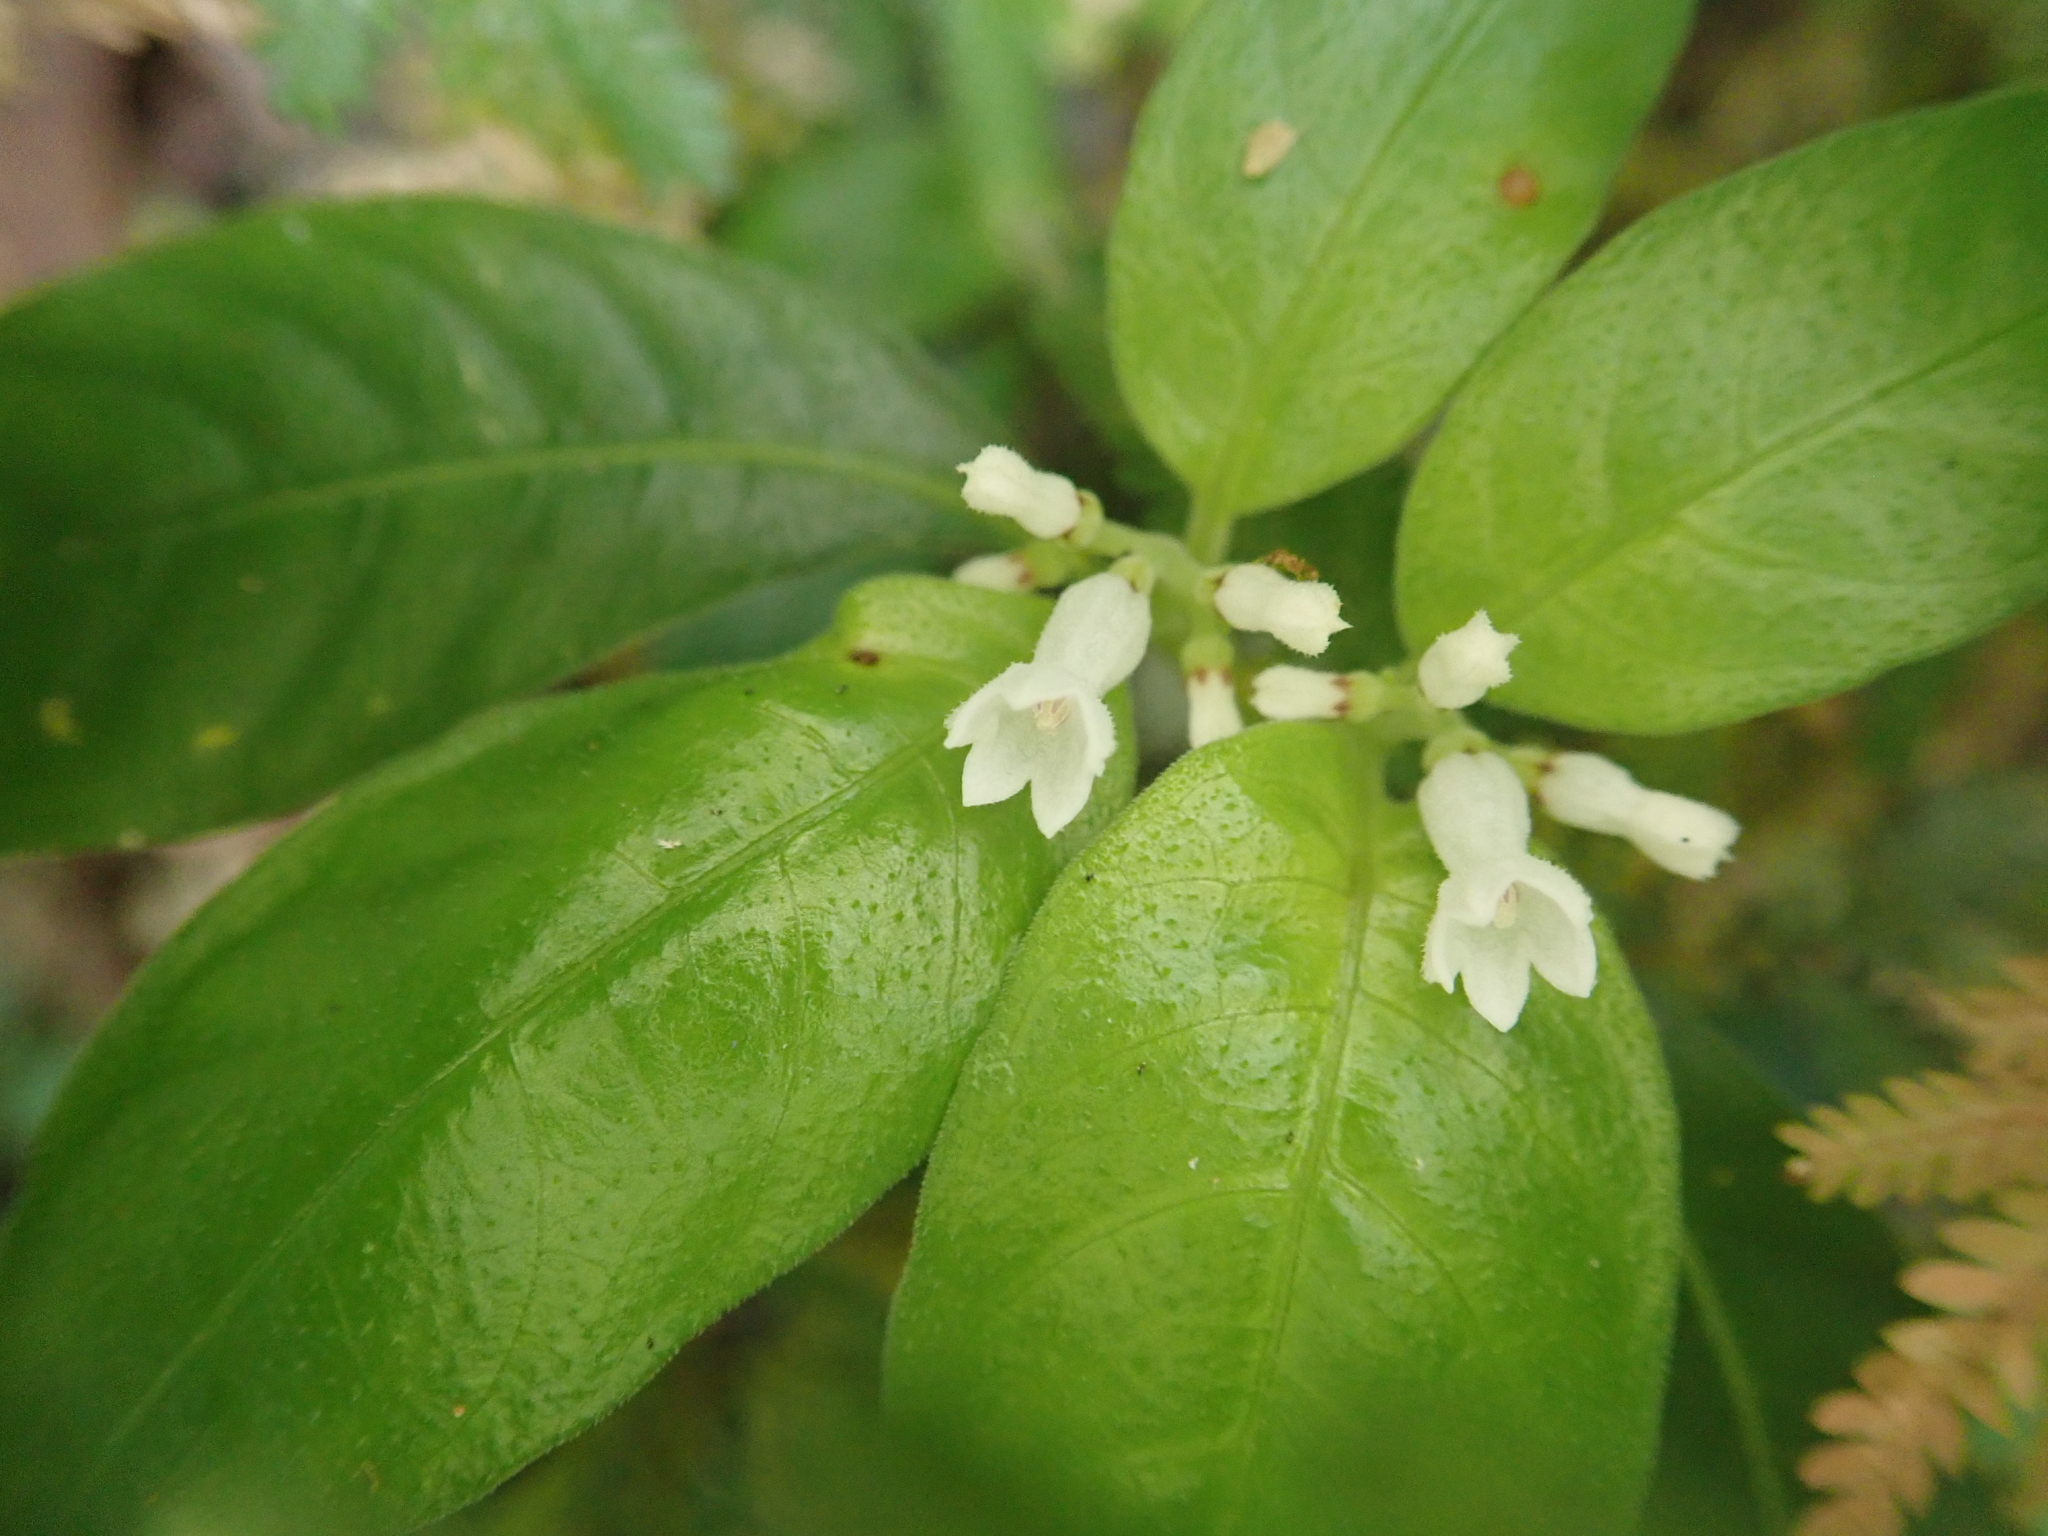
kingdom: Plantae
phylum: Tracheophyta
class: Magnoliopsida
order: Gentianales
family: Rubiaceae
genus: Ophiorrhiza
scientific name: Ophiorrhiza pumila
